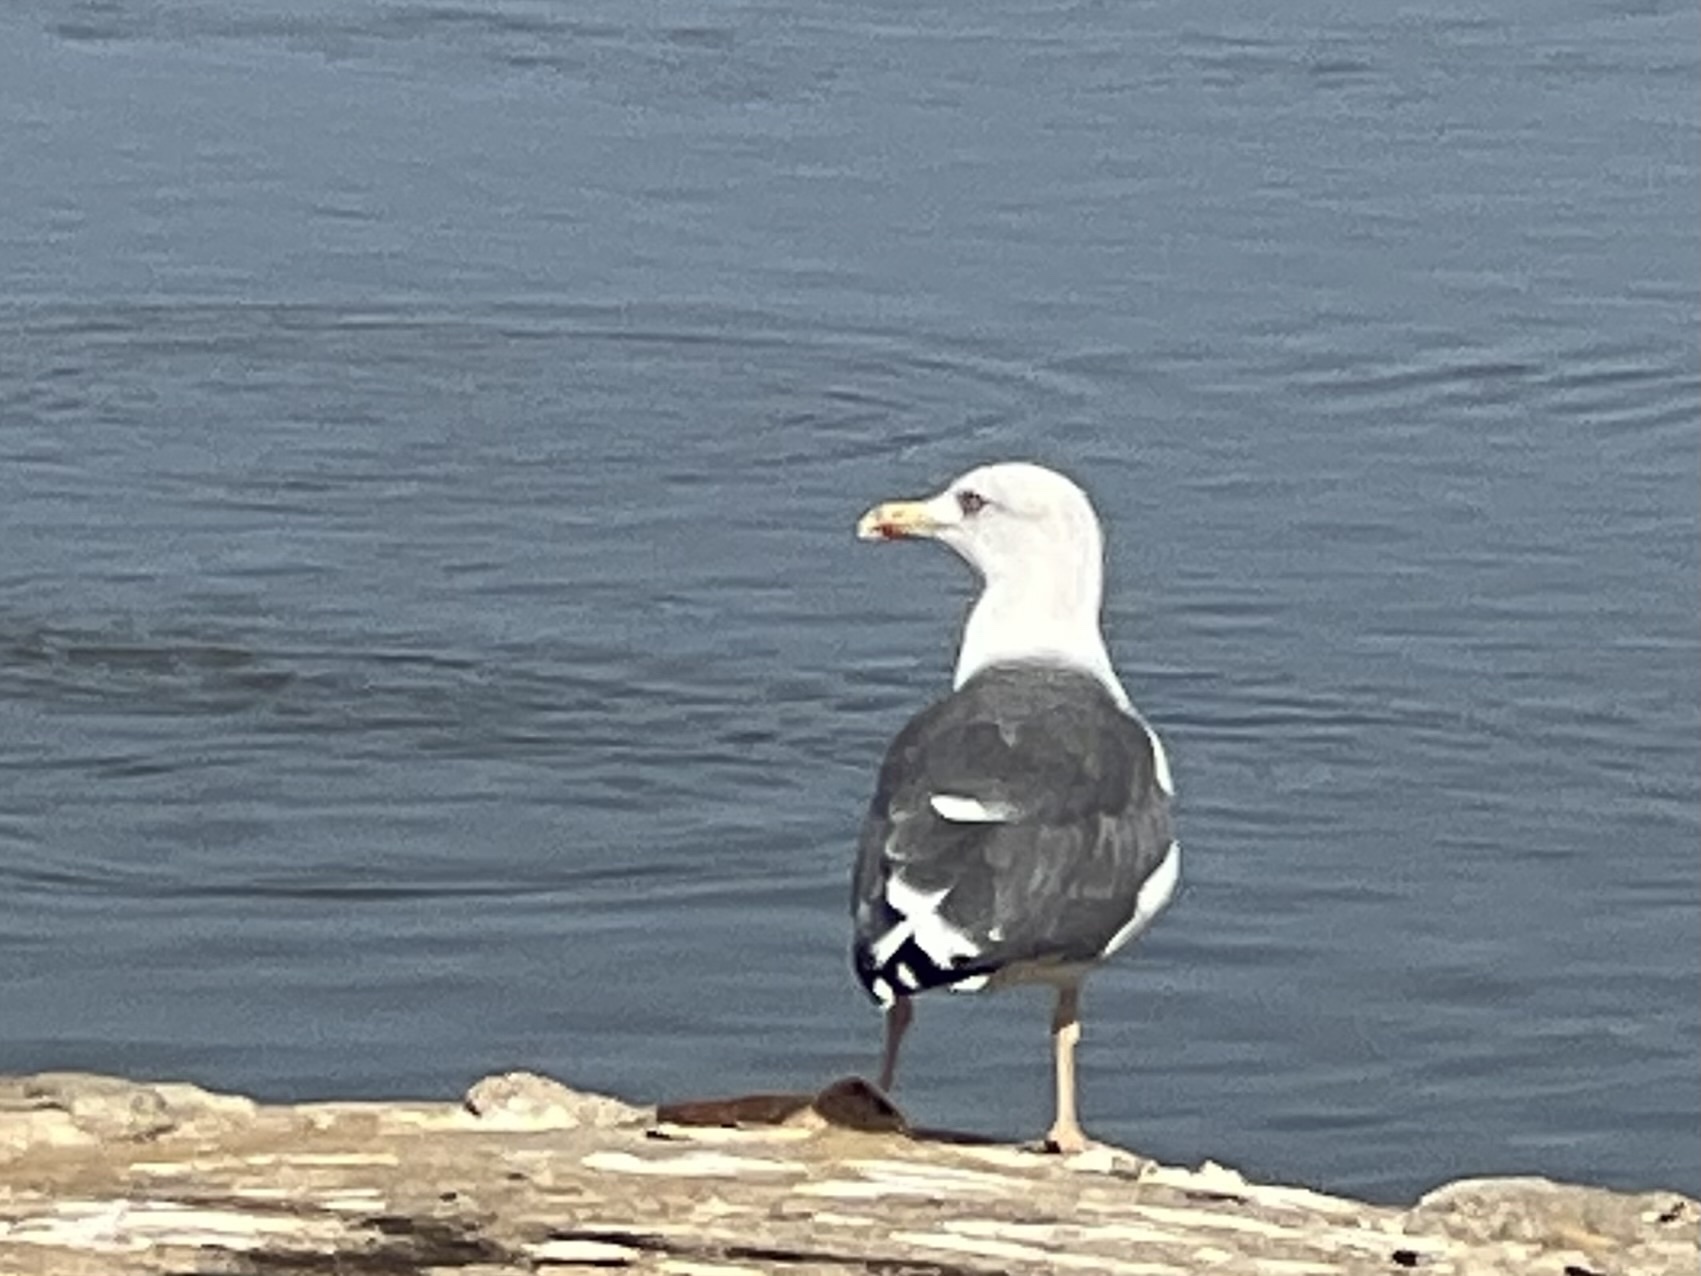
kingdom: Animalia
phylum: Chordata
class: Aves
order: Charadriiformes
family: Laridae
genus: Larus
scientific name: Larus michahellis
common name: Yellow-legged gull
